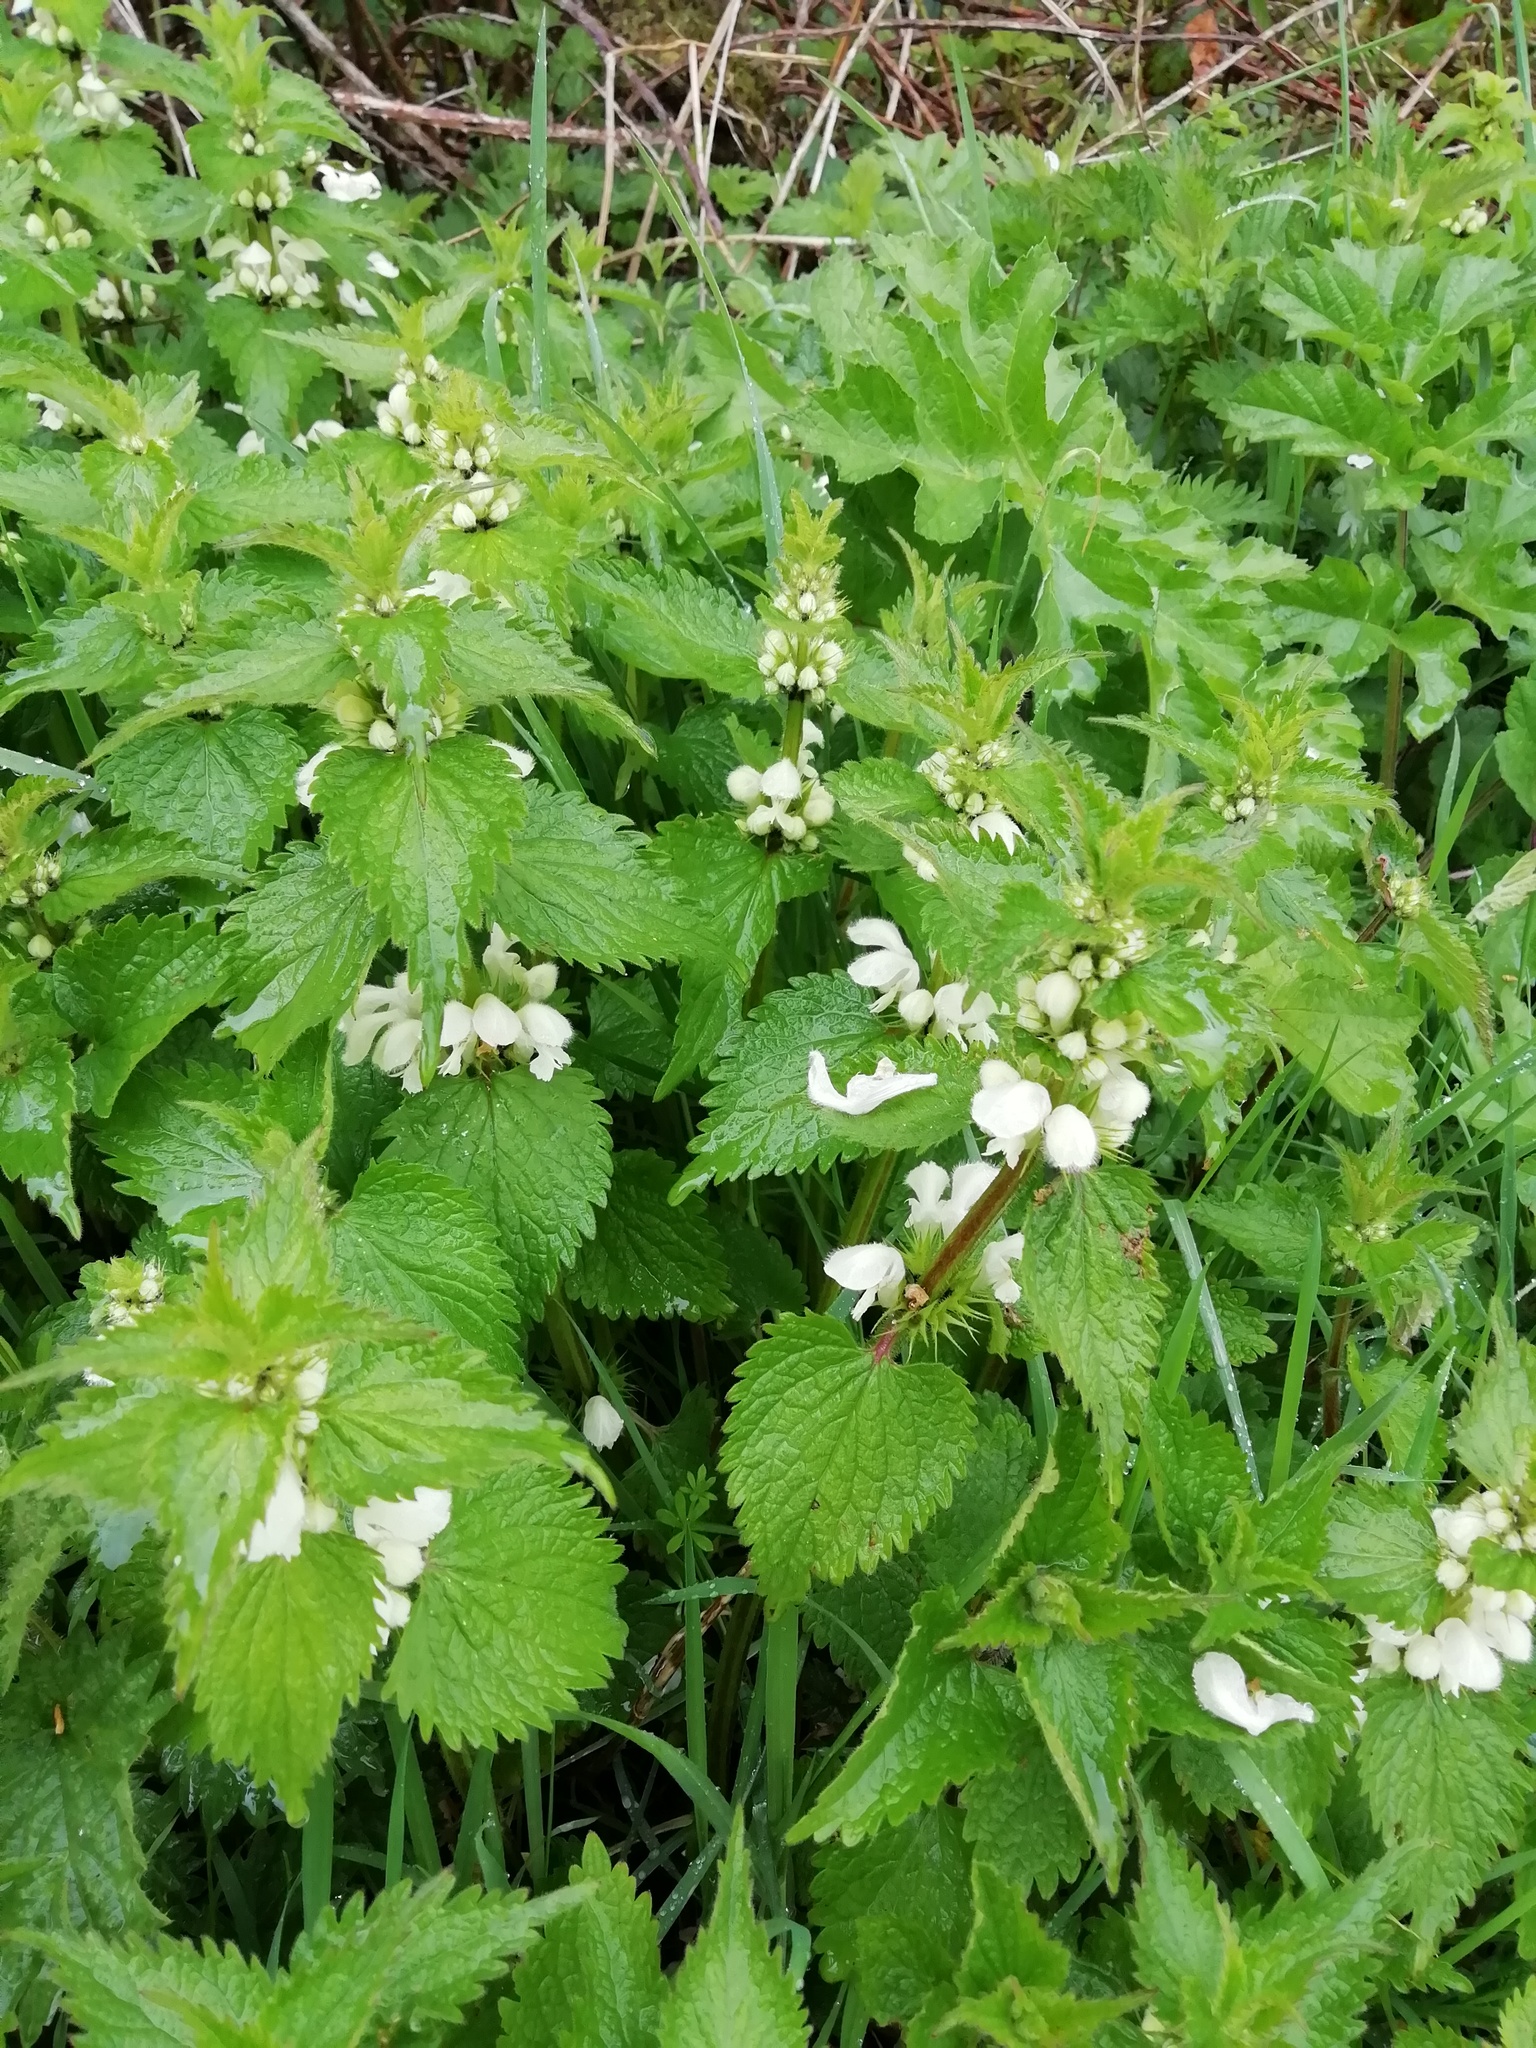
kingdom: Plantae
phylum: Tracheophyta
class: Magnoliopsida
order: Lamiales
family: Lamiaceae
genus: Lamium
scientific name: Lamium album
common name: White dead-nettle
